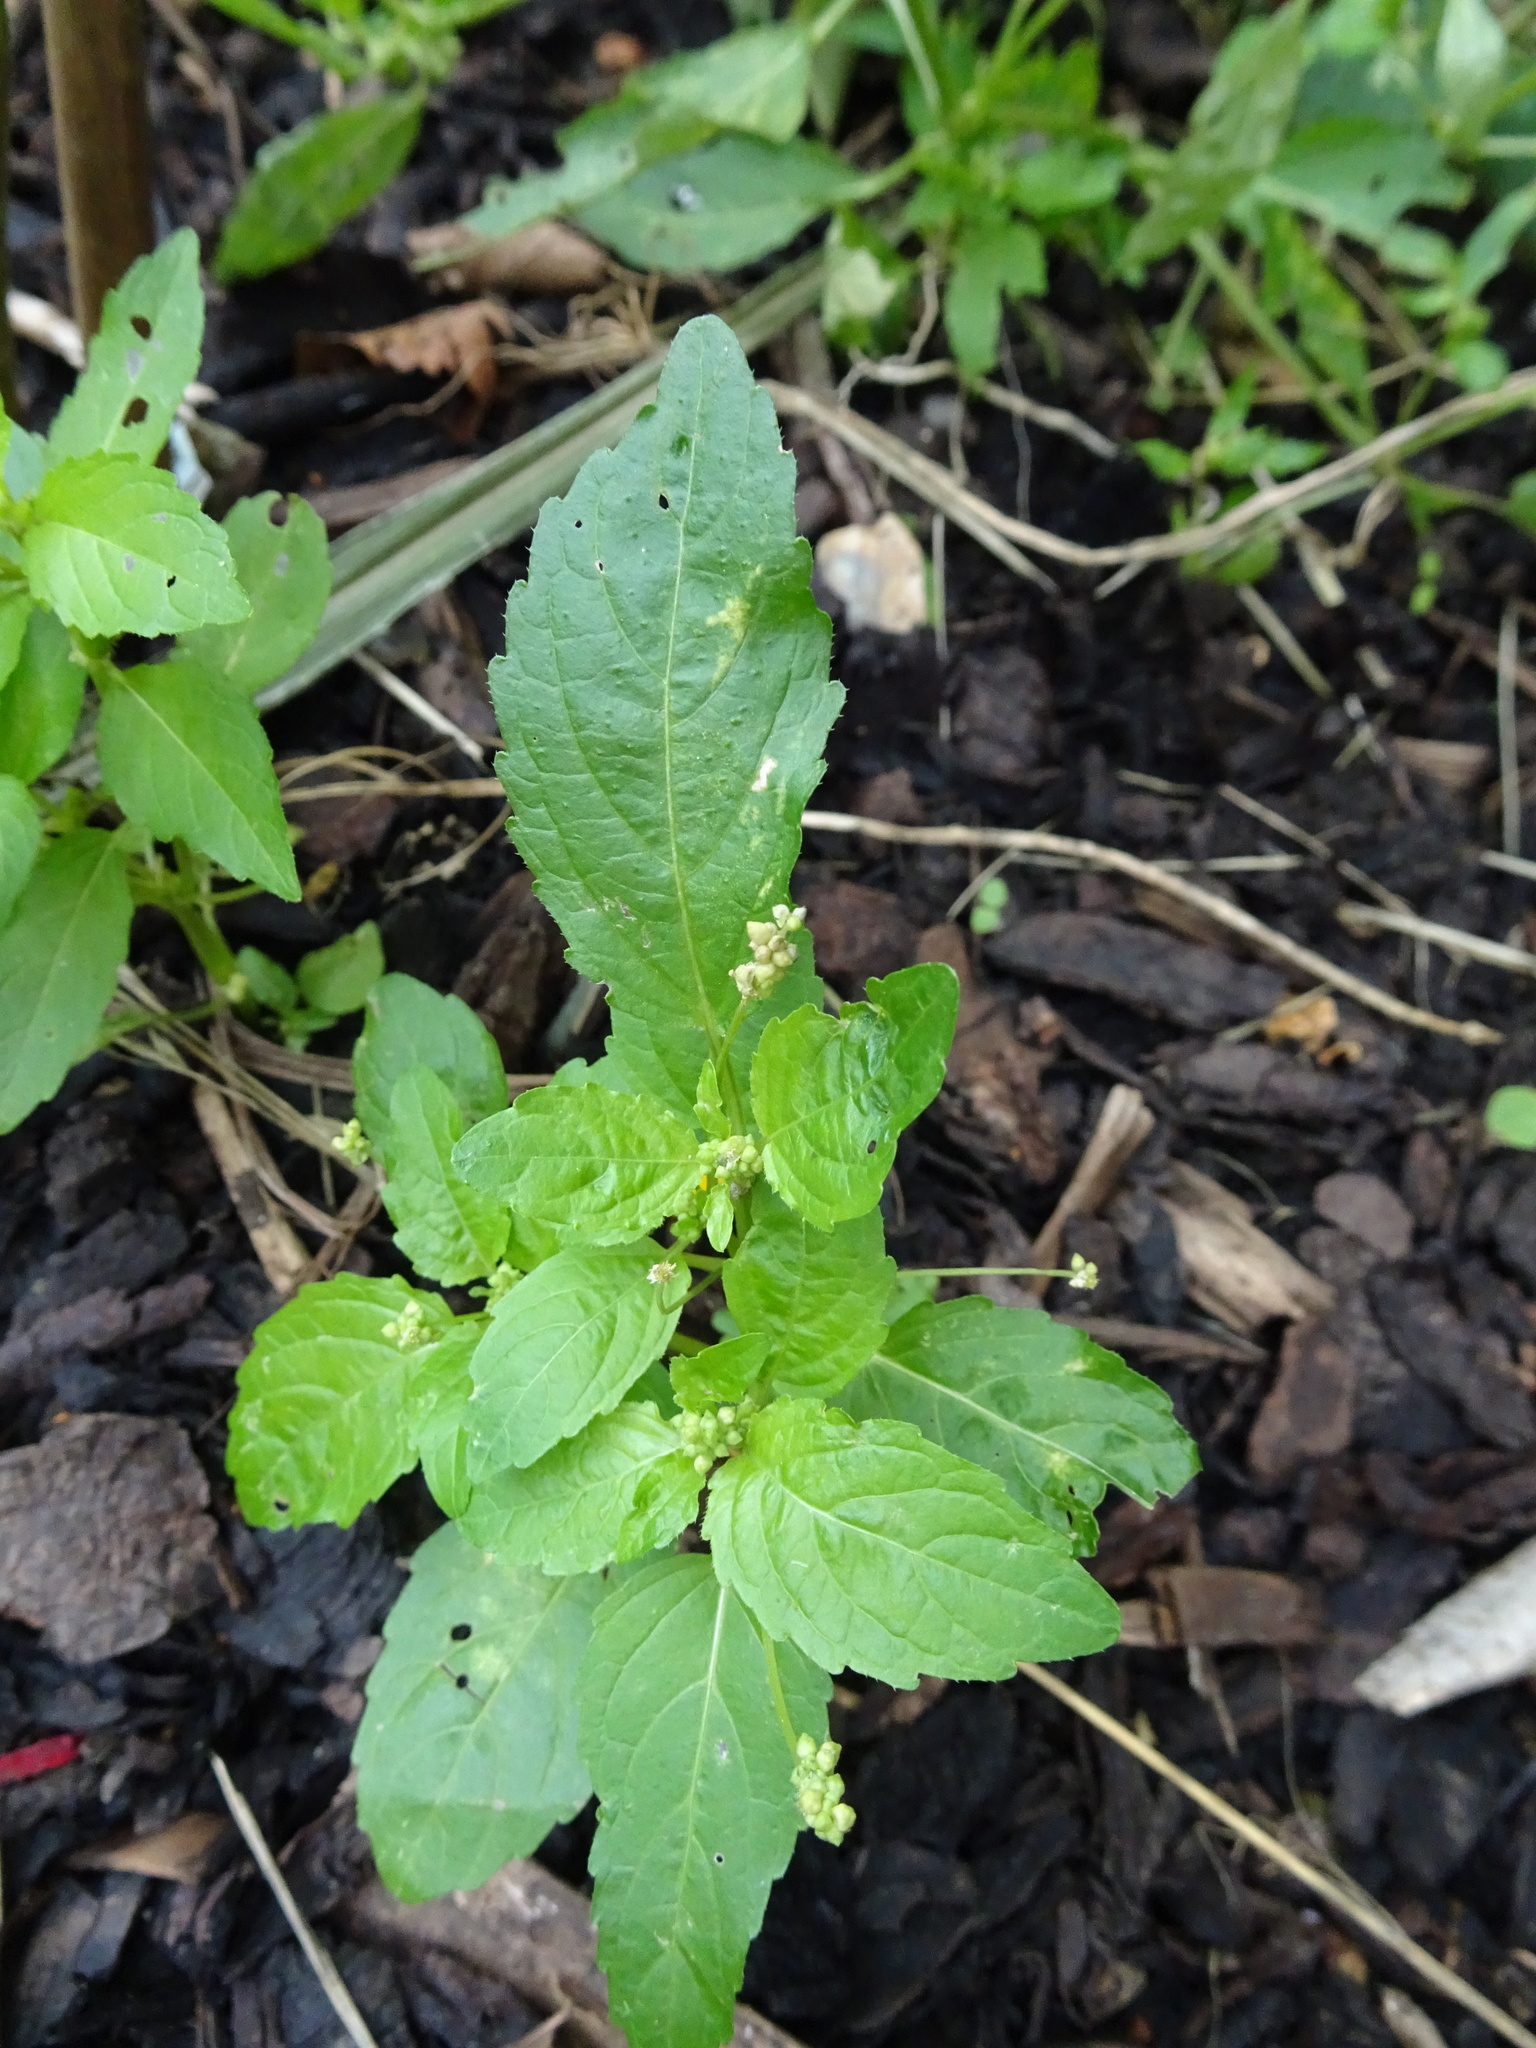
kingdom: Plantae
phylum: Tracheophyta
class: Magnoliopsida
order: Malpighiales
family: Euphorbiaceae
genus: Mercurialis
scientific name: Mercurialis annua
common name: Annual mercury
